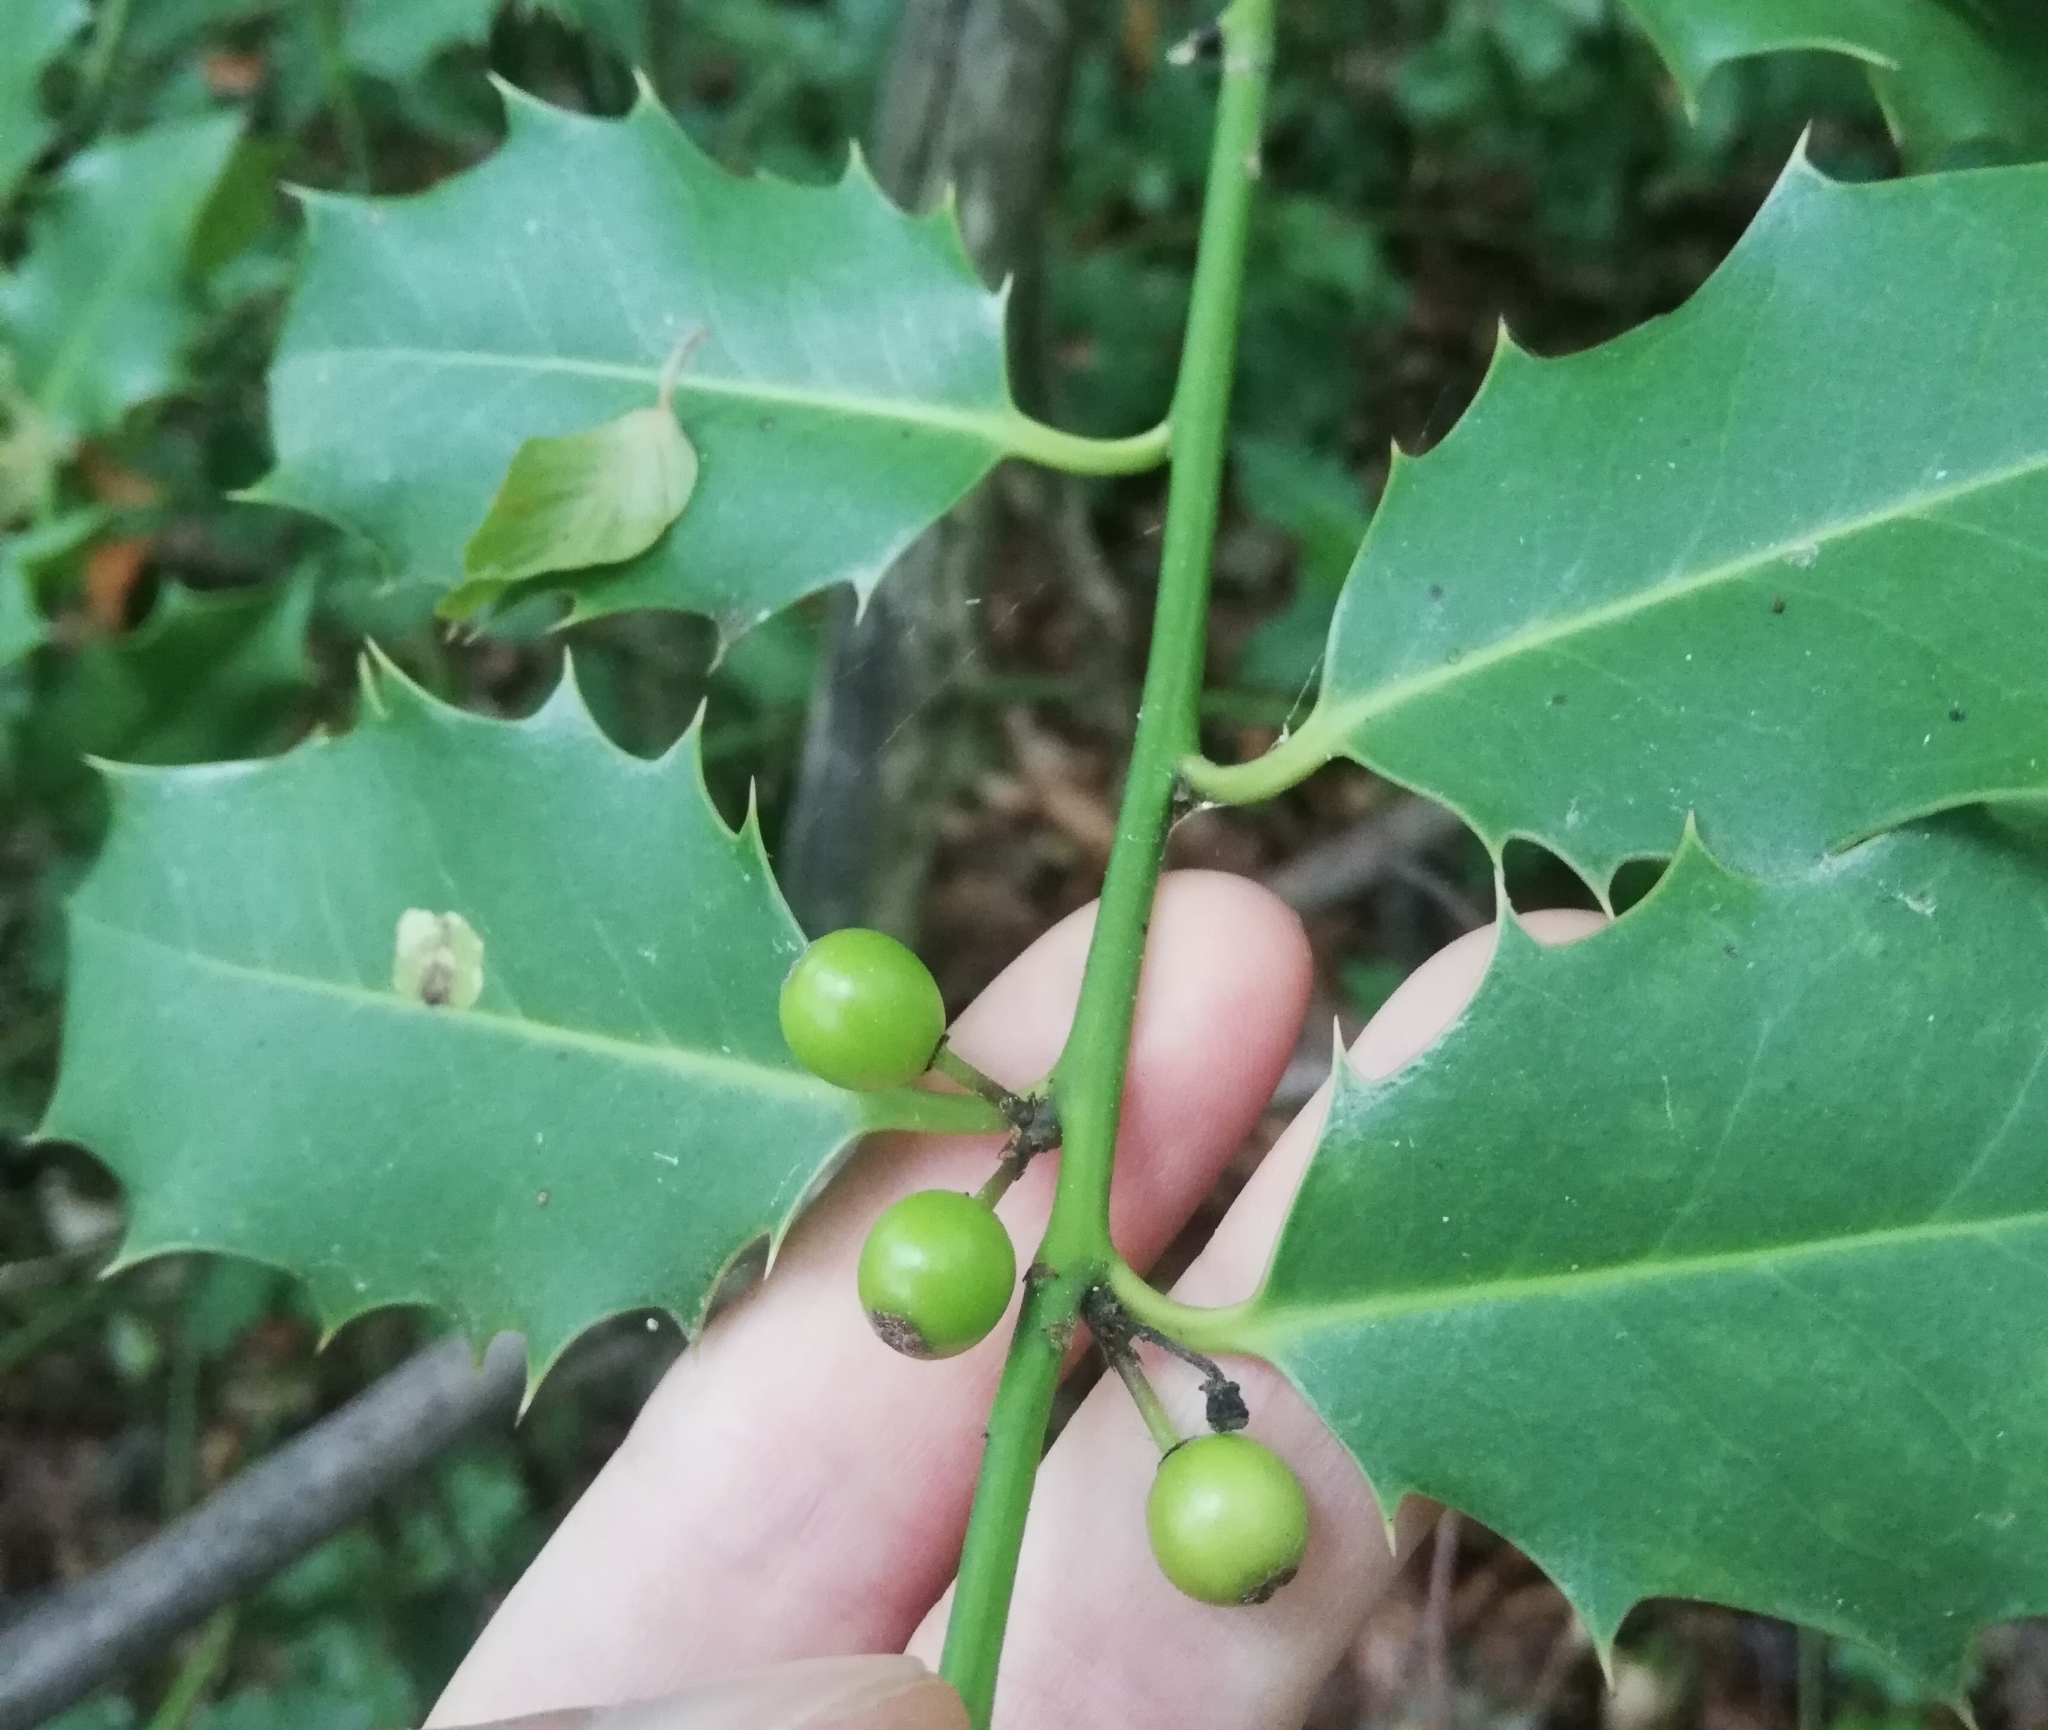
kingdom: Plantae
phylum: Tracheophyta
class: Magnoliopsida
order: Aquifoliales
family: Aquifoliaceae
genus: Ilex
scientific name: Ilex aquifolium
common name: English holly
